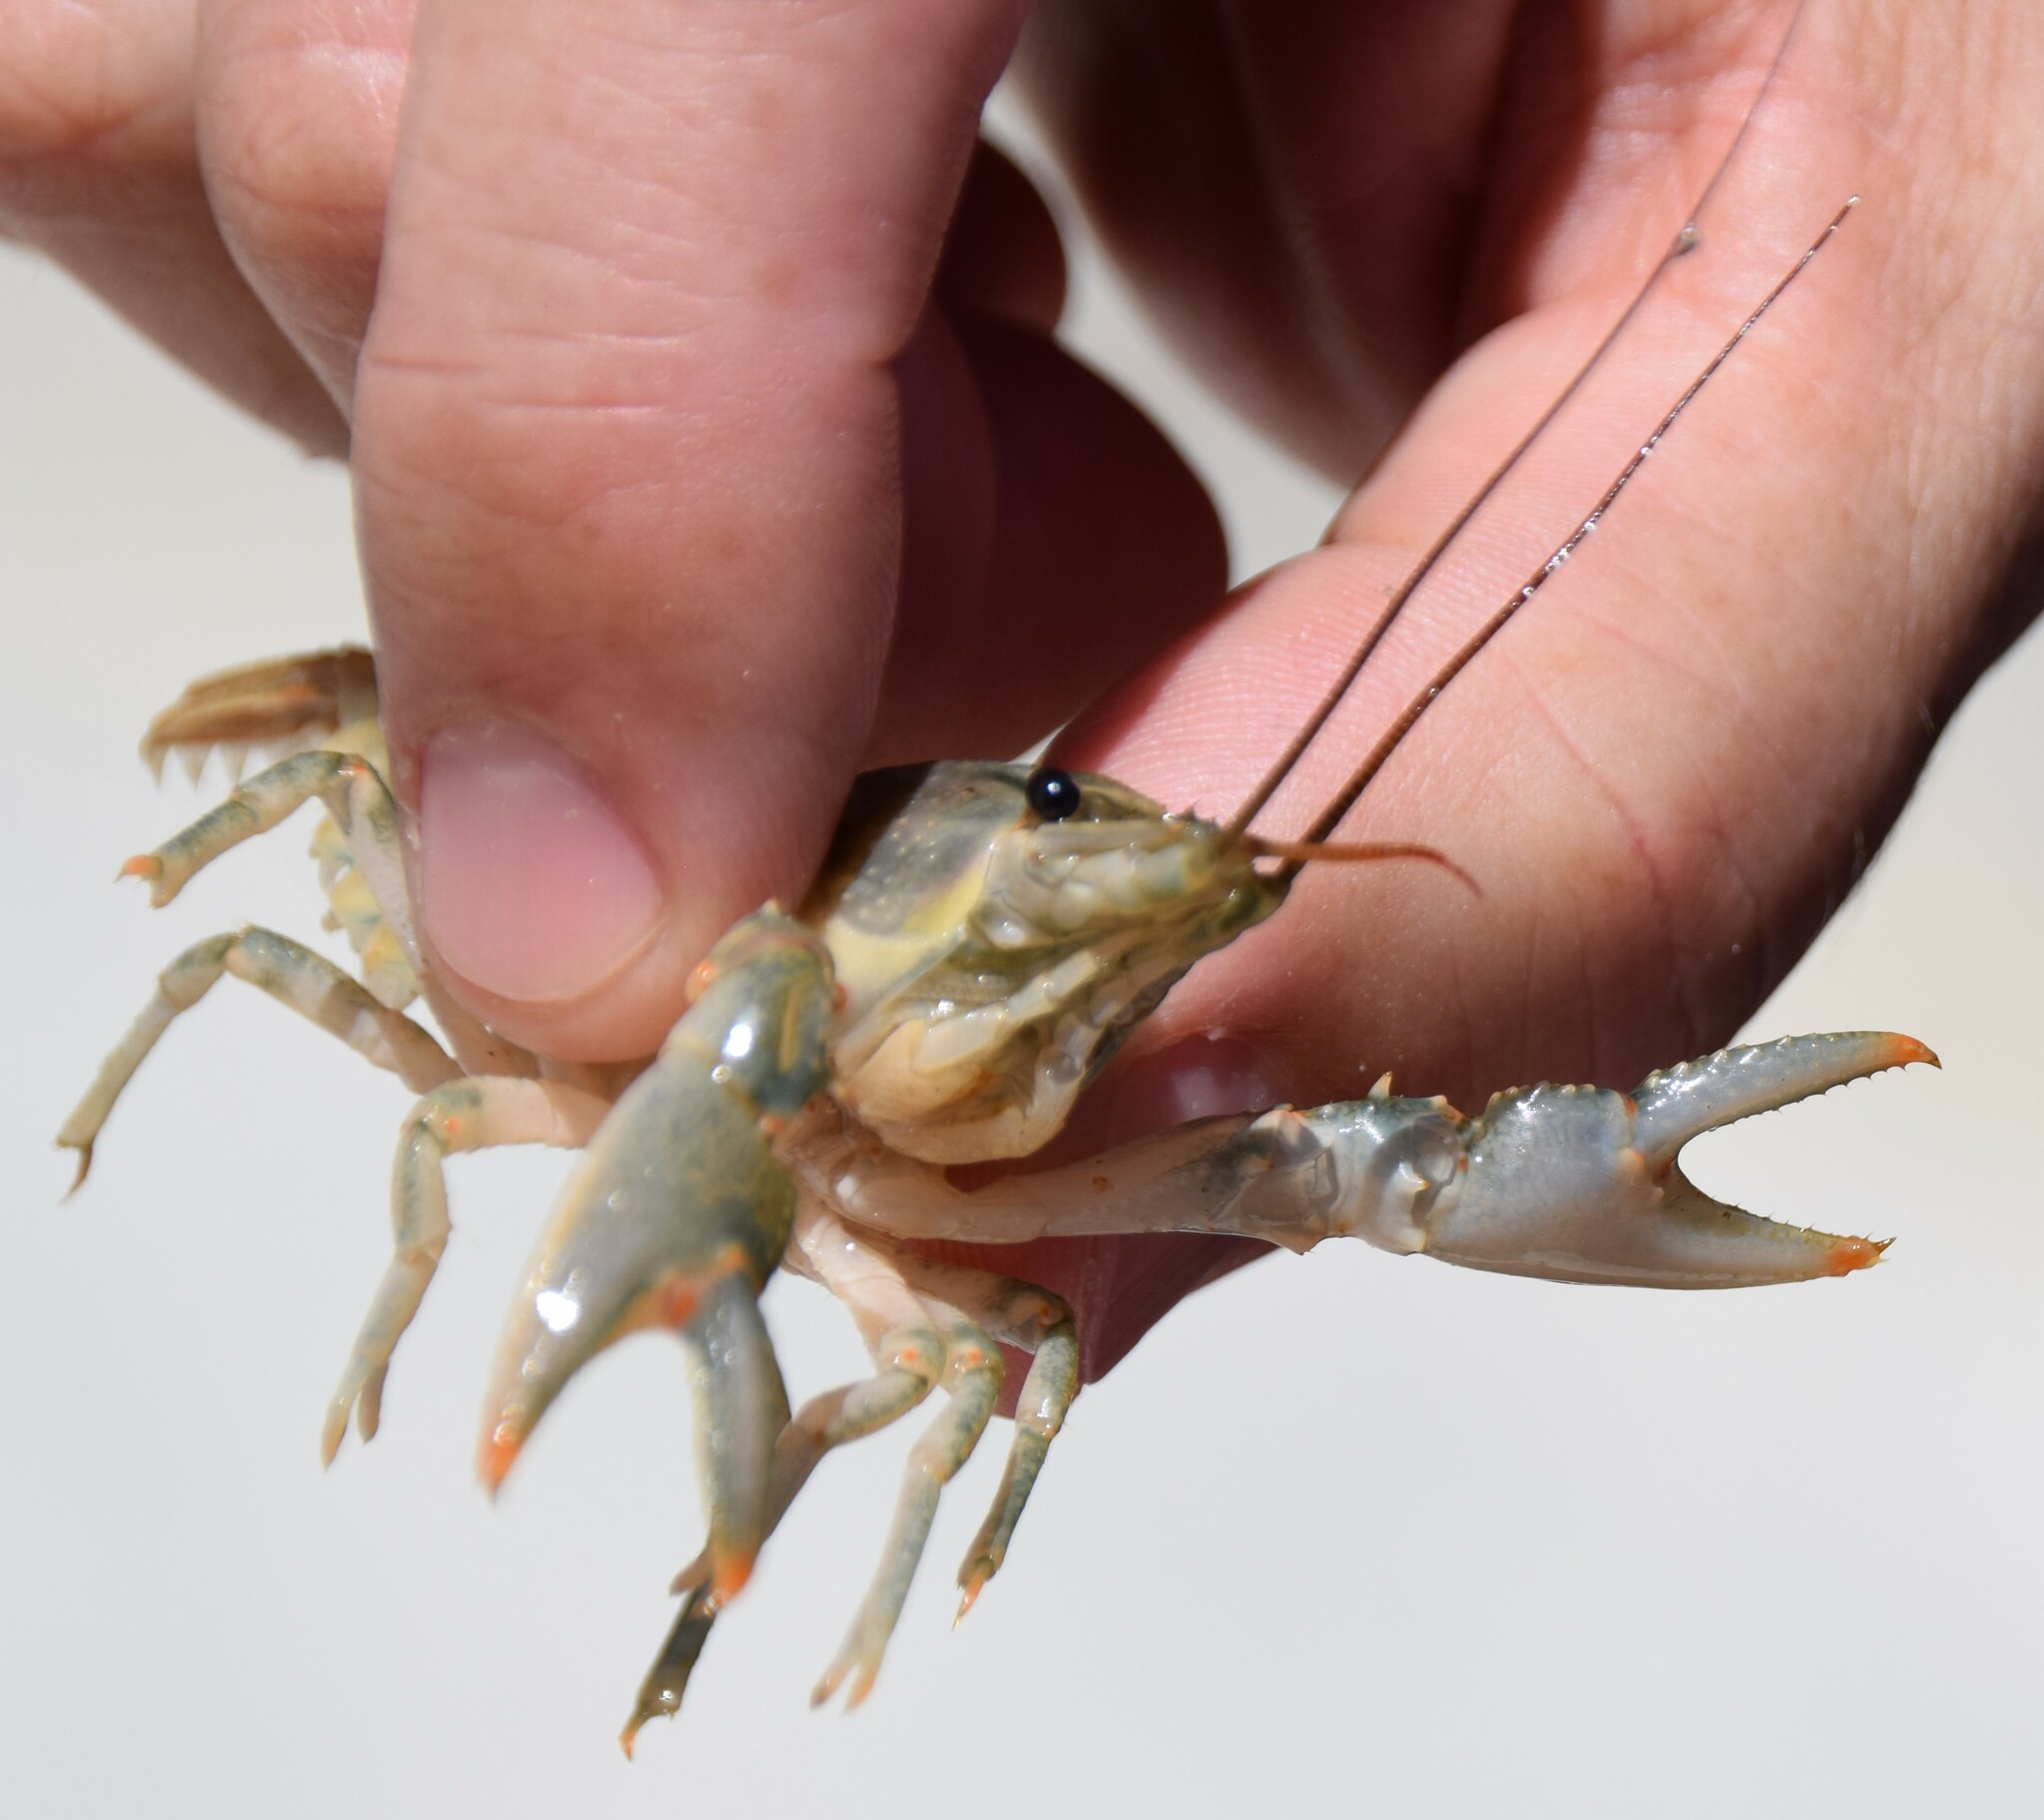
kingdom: Animalia
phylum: Arthropoda
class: Malacostraca
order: Decapoda
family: Cambaridae
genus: Faxonius
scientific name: Faxonius virilis
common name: Virile crayfish
